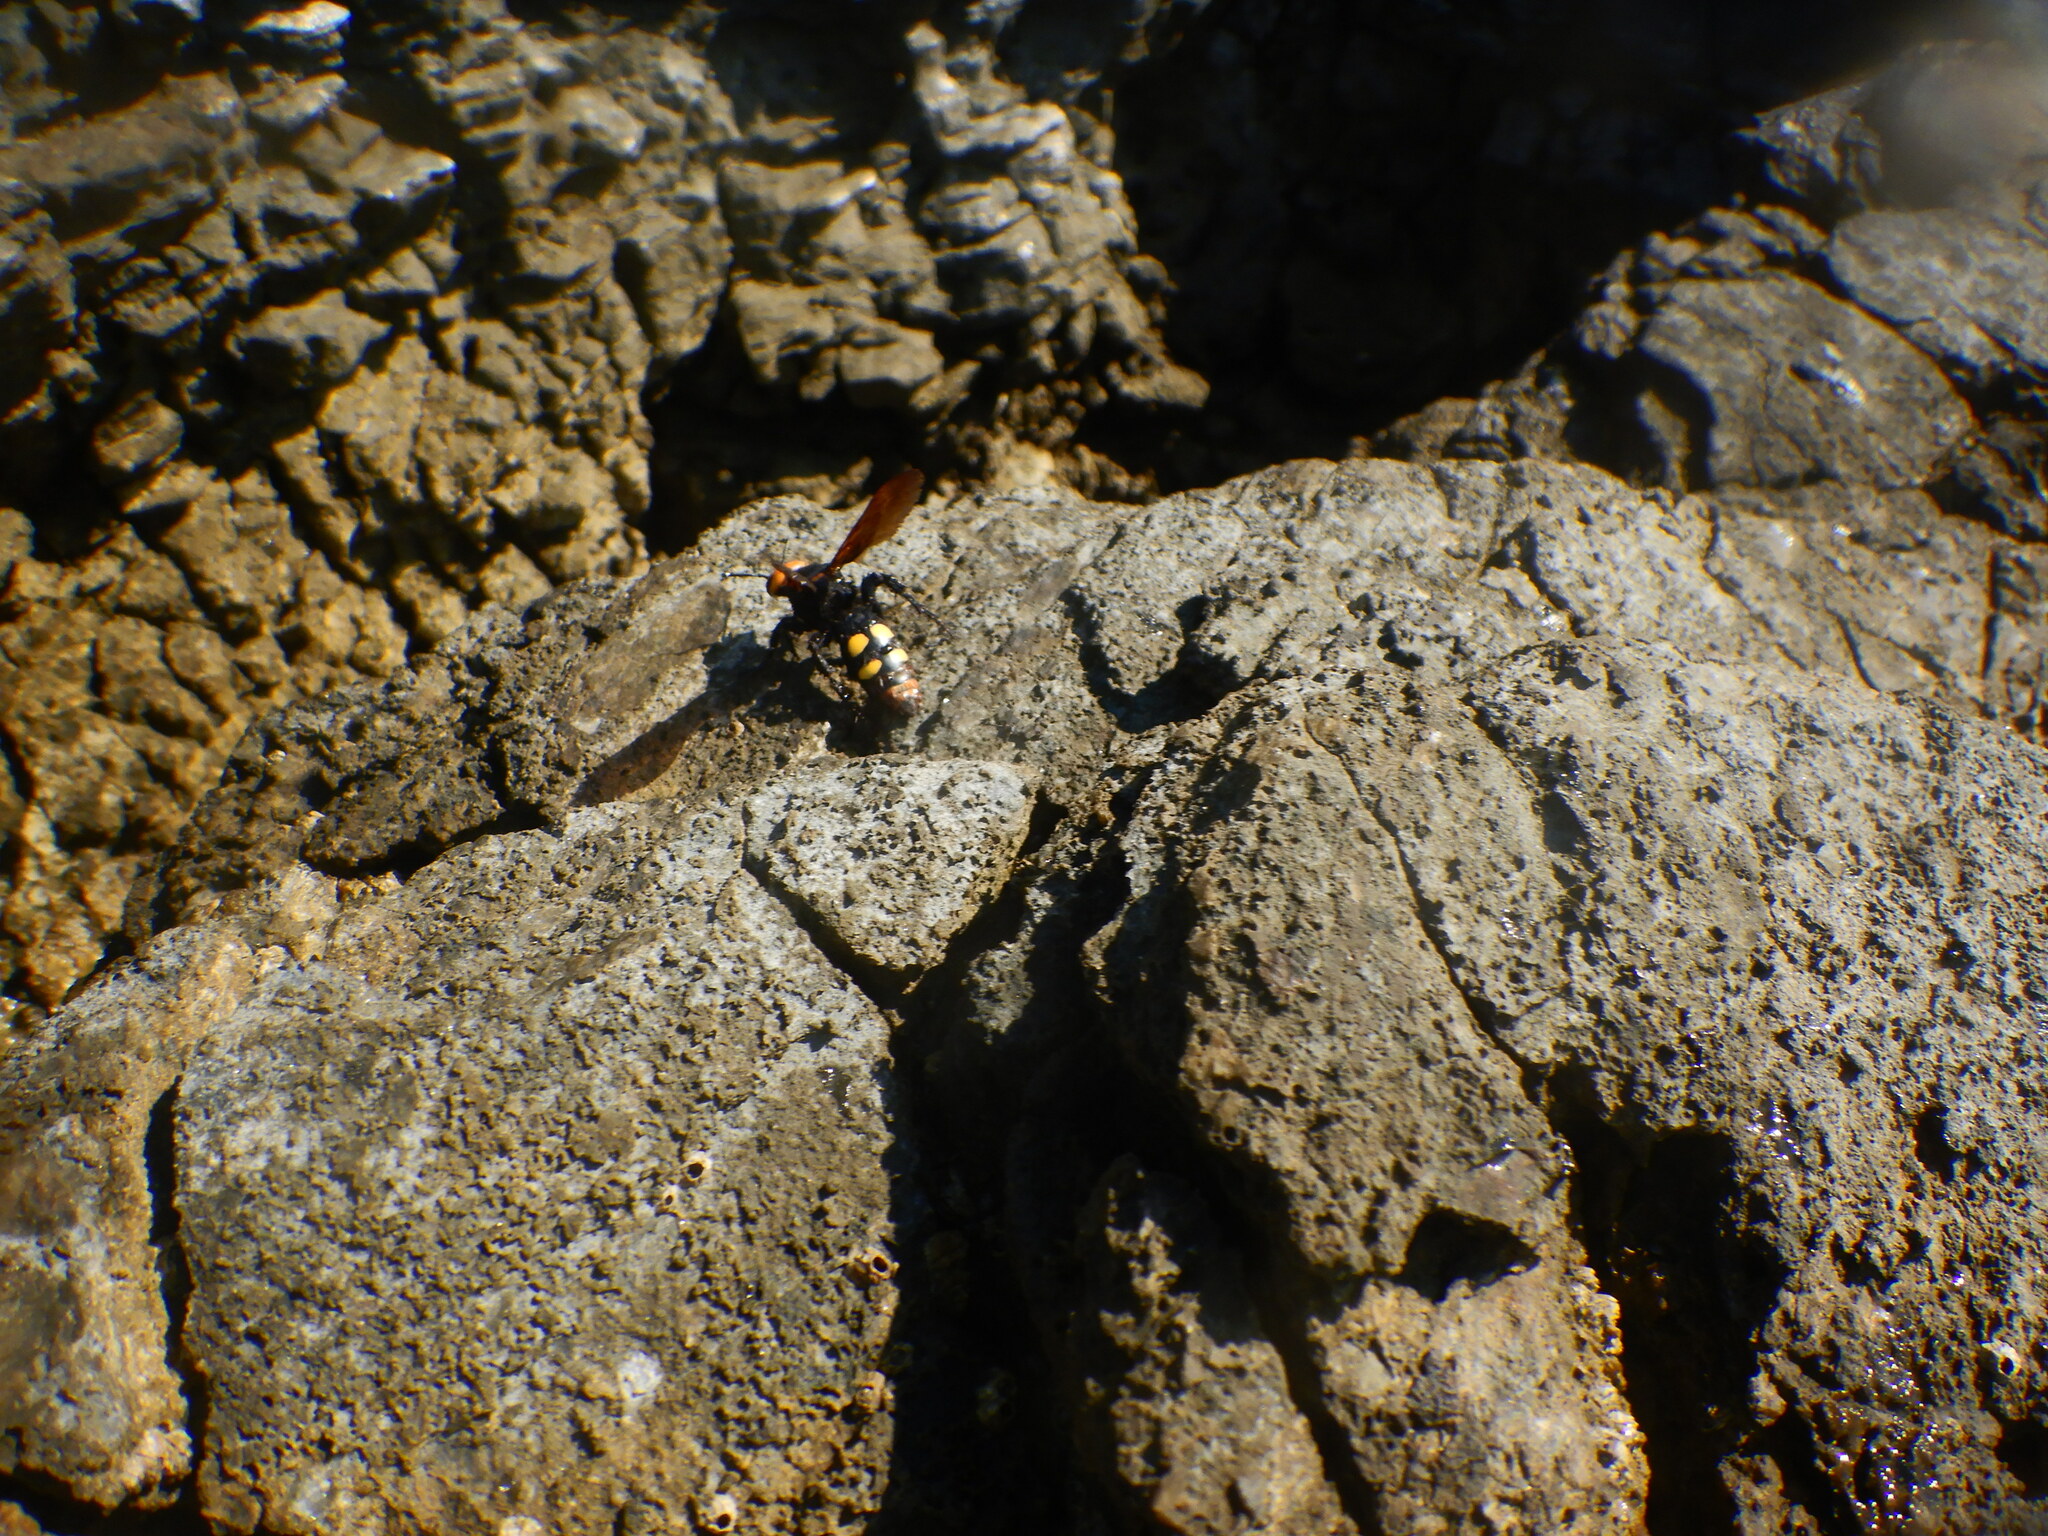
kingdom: Animalia
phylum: Arthropoda
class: Insecta
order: Hymenoptera
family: Scoliidae
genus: Megascolia
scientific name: Megascolia maculata
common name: Mammoth wasp
